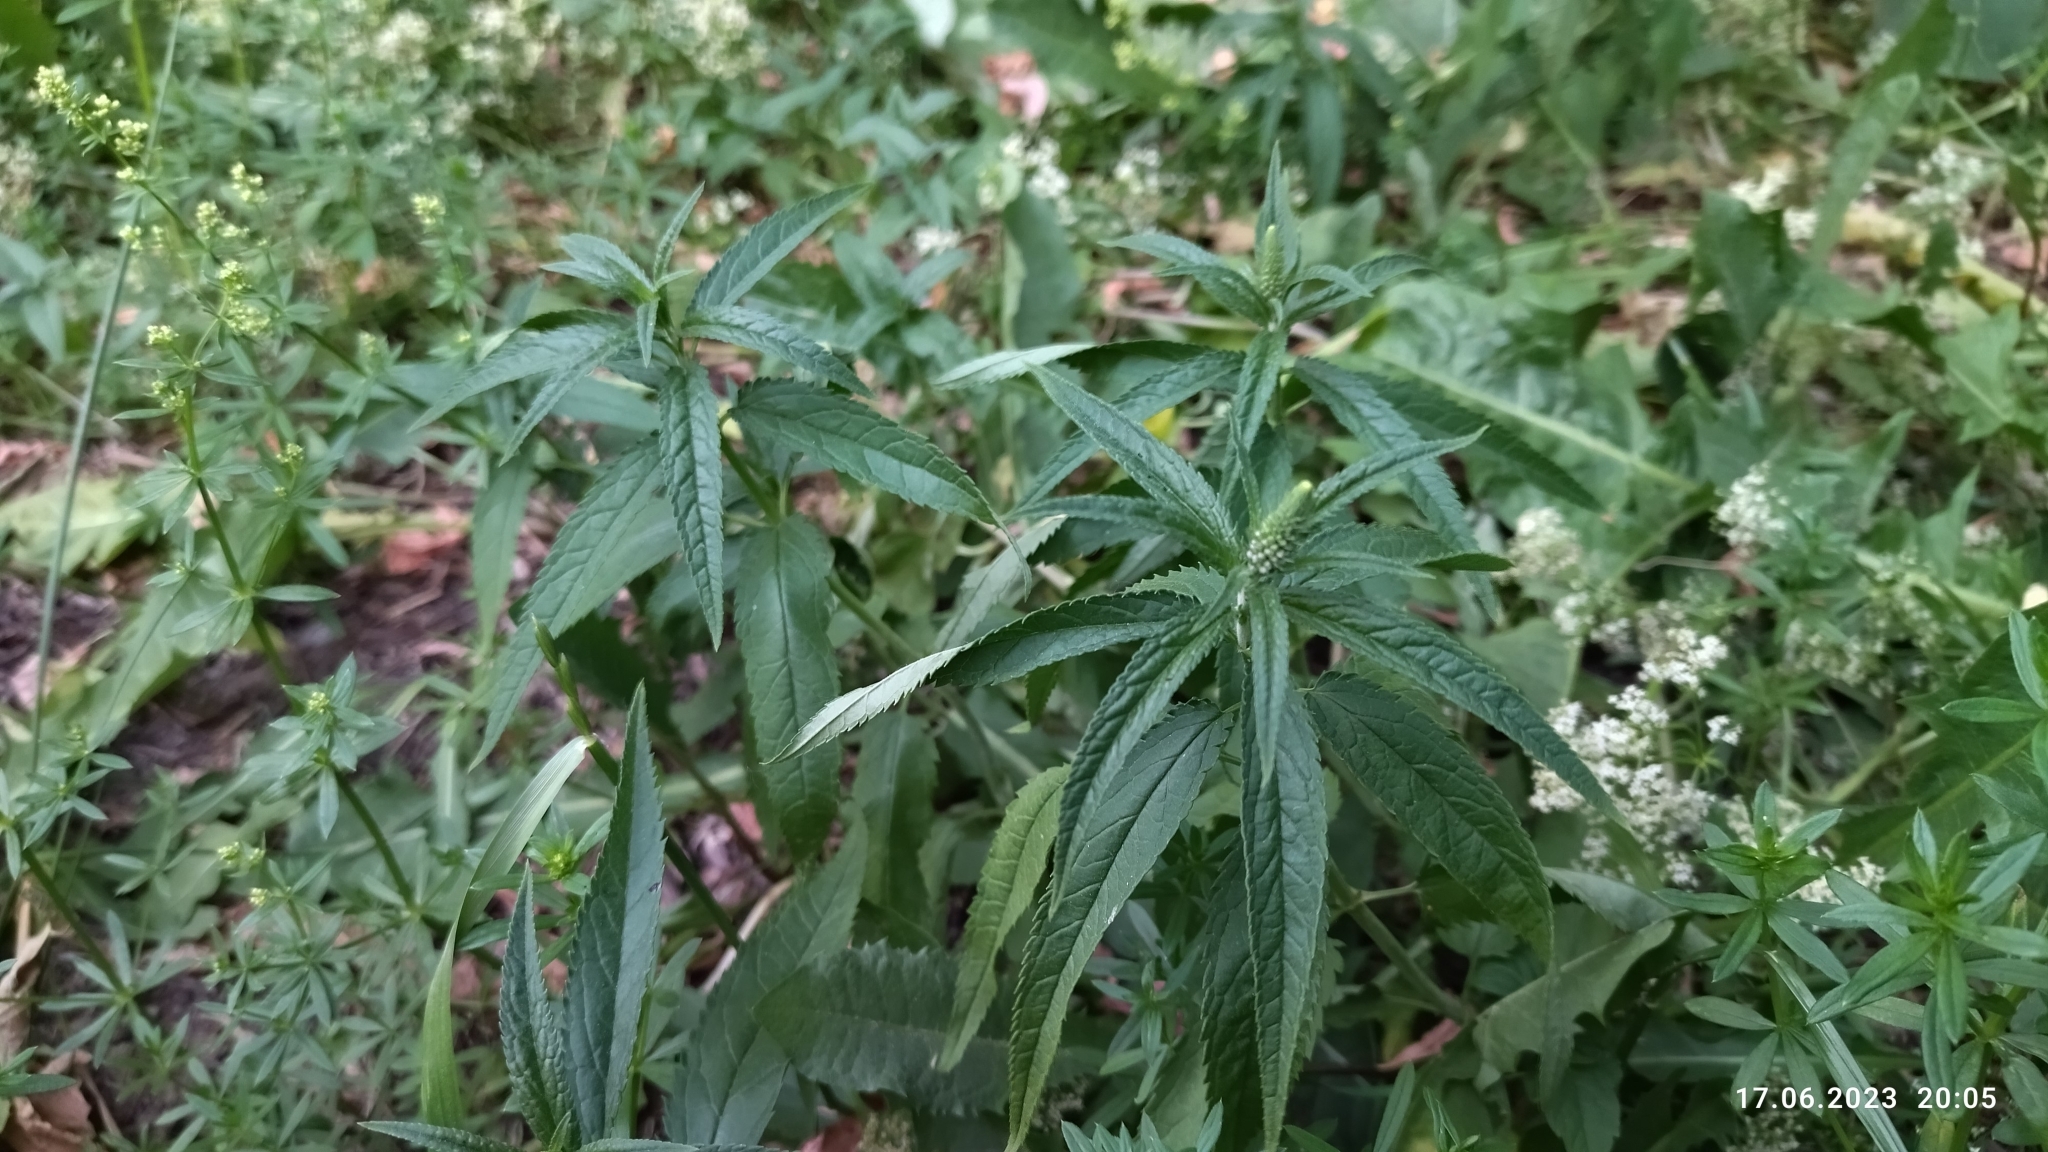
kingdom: Plantae
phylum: Tracheophyta
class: Magnoliopsida
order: Lamiales
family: Plantaginaceae
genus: Veronica
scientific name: Veronica longifolia
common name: Garden speedwell
